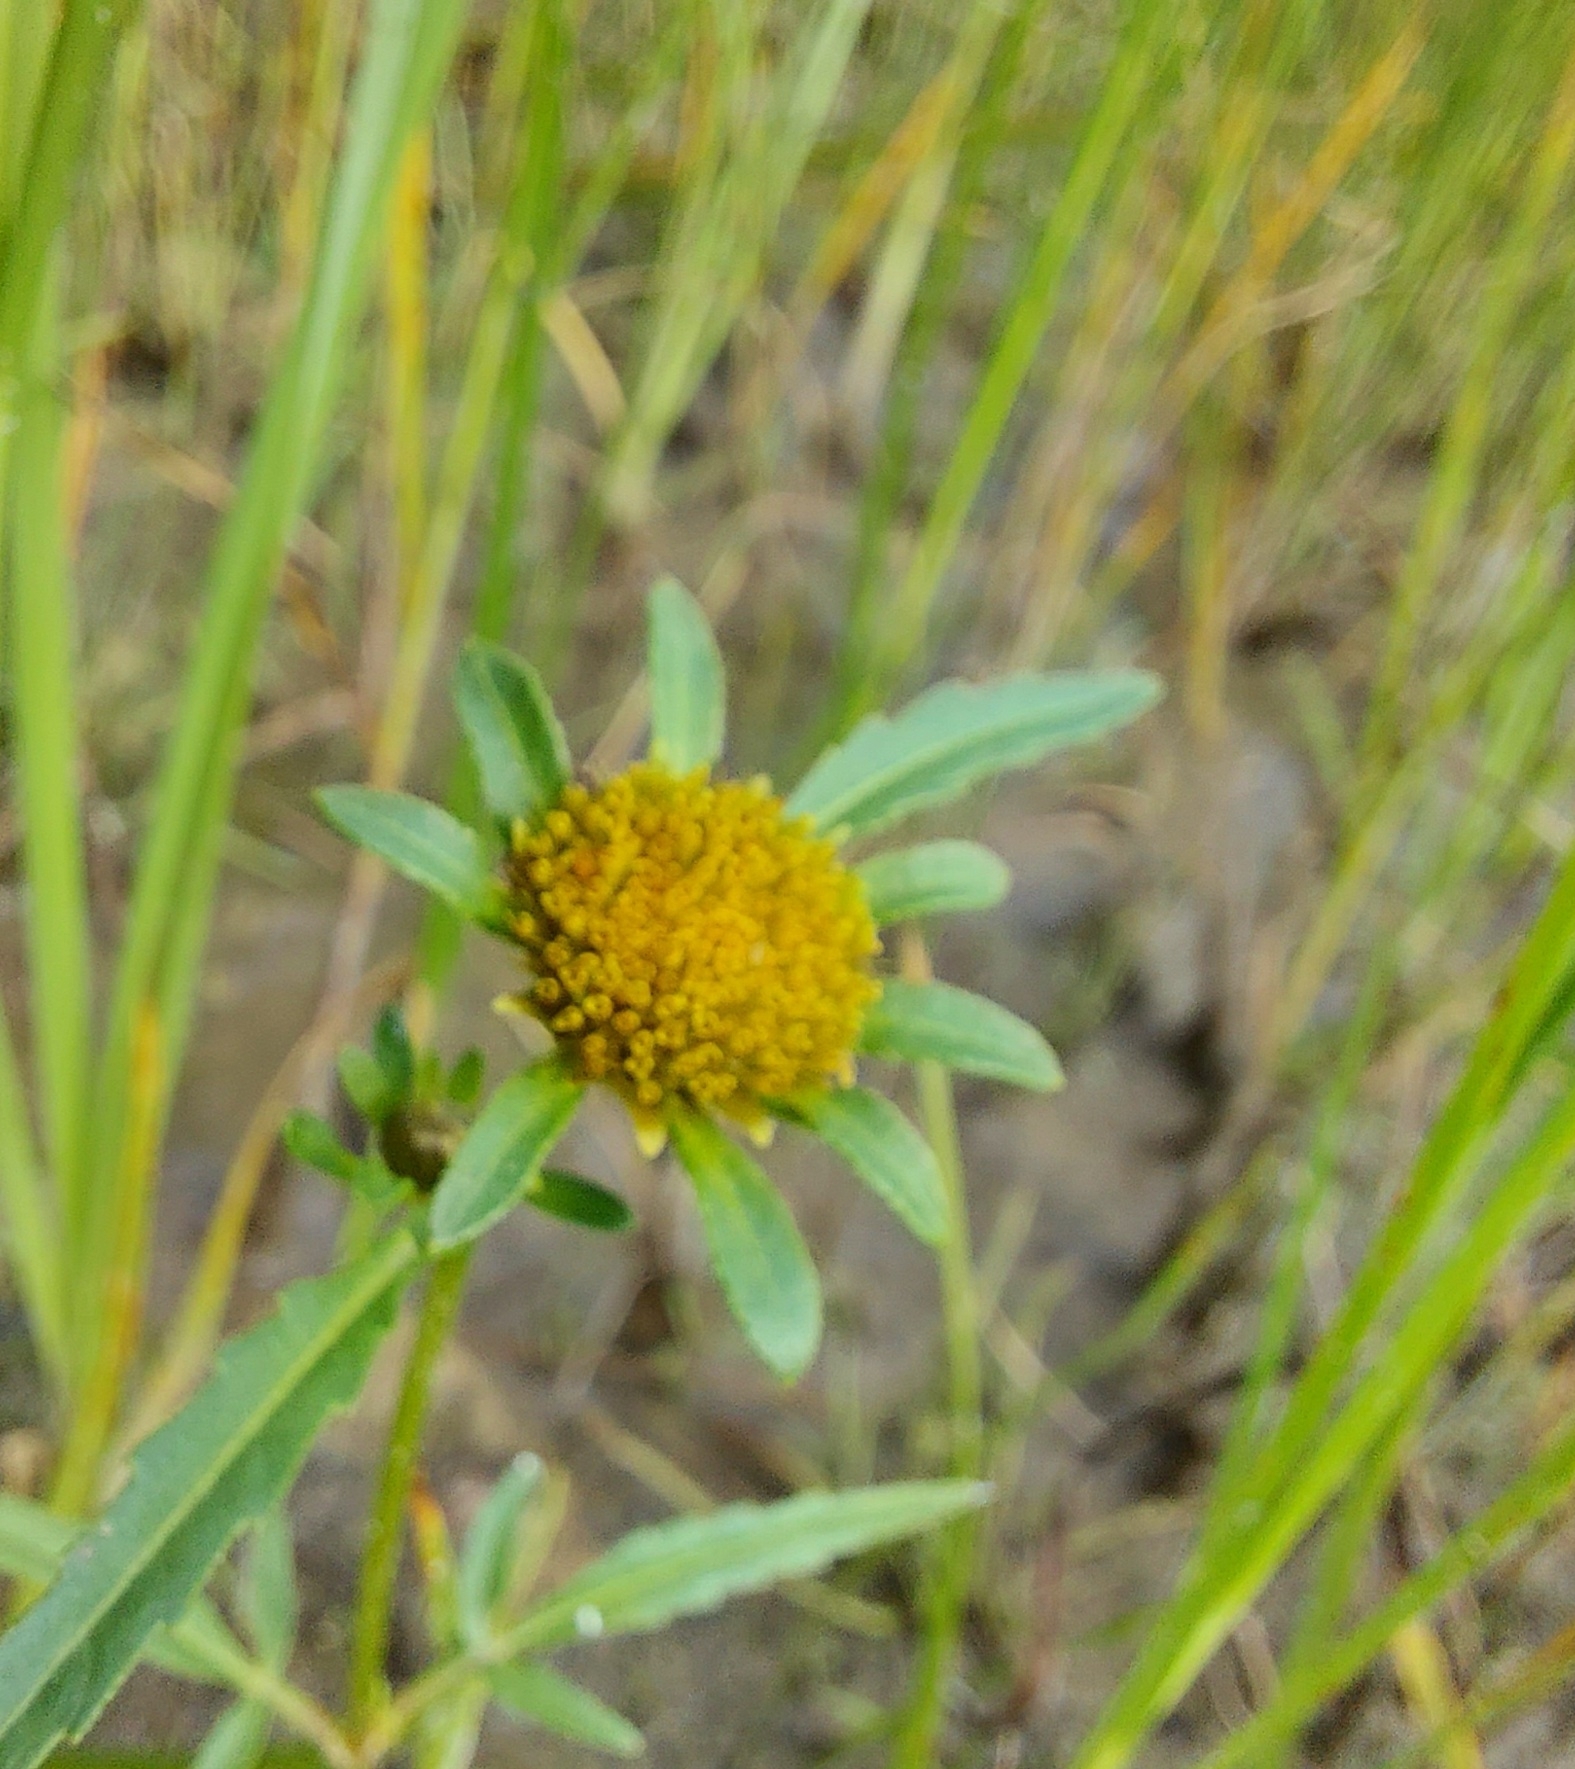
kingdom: Plantae
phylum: Tracheophyta
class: Magnoliopsida
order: Asterales
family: Asteraceae
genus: Bidens
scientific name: Bidens radiata
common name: Radiating bur-marigold
